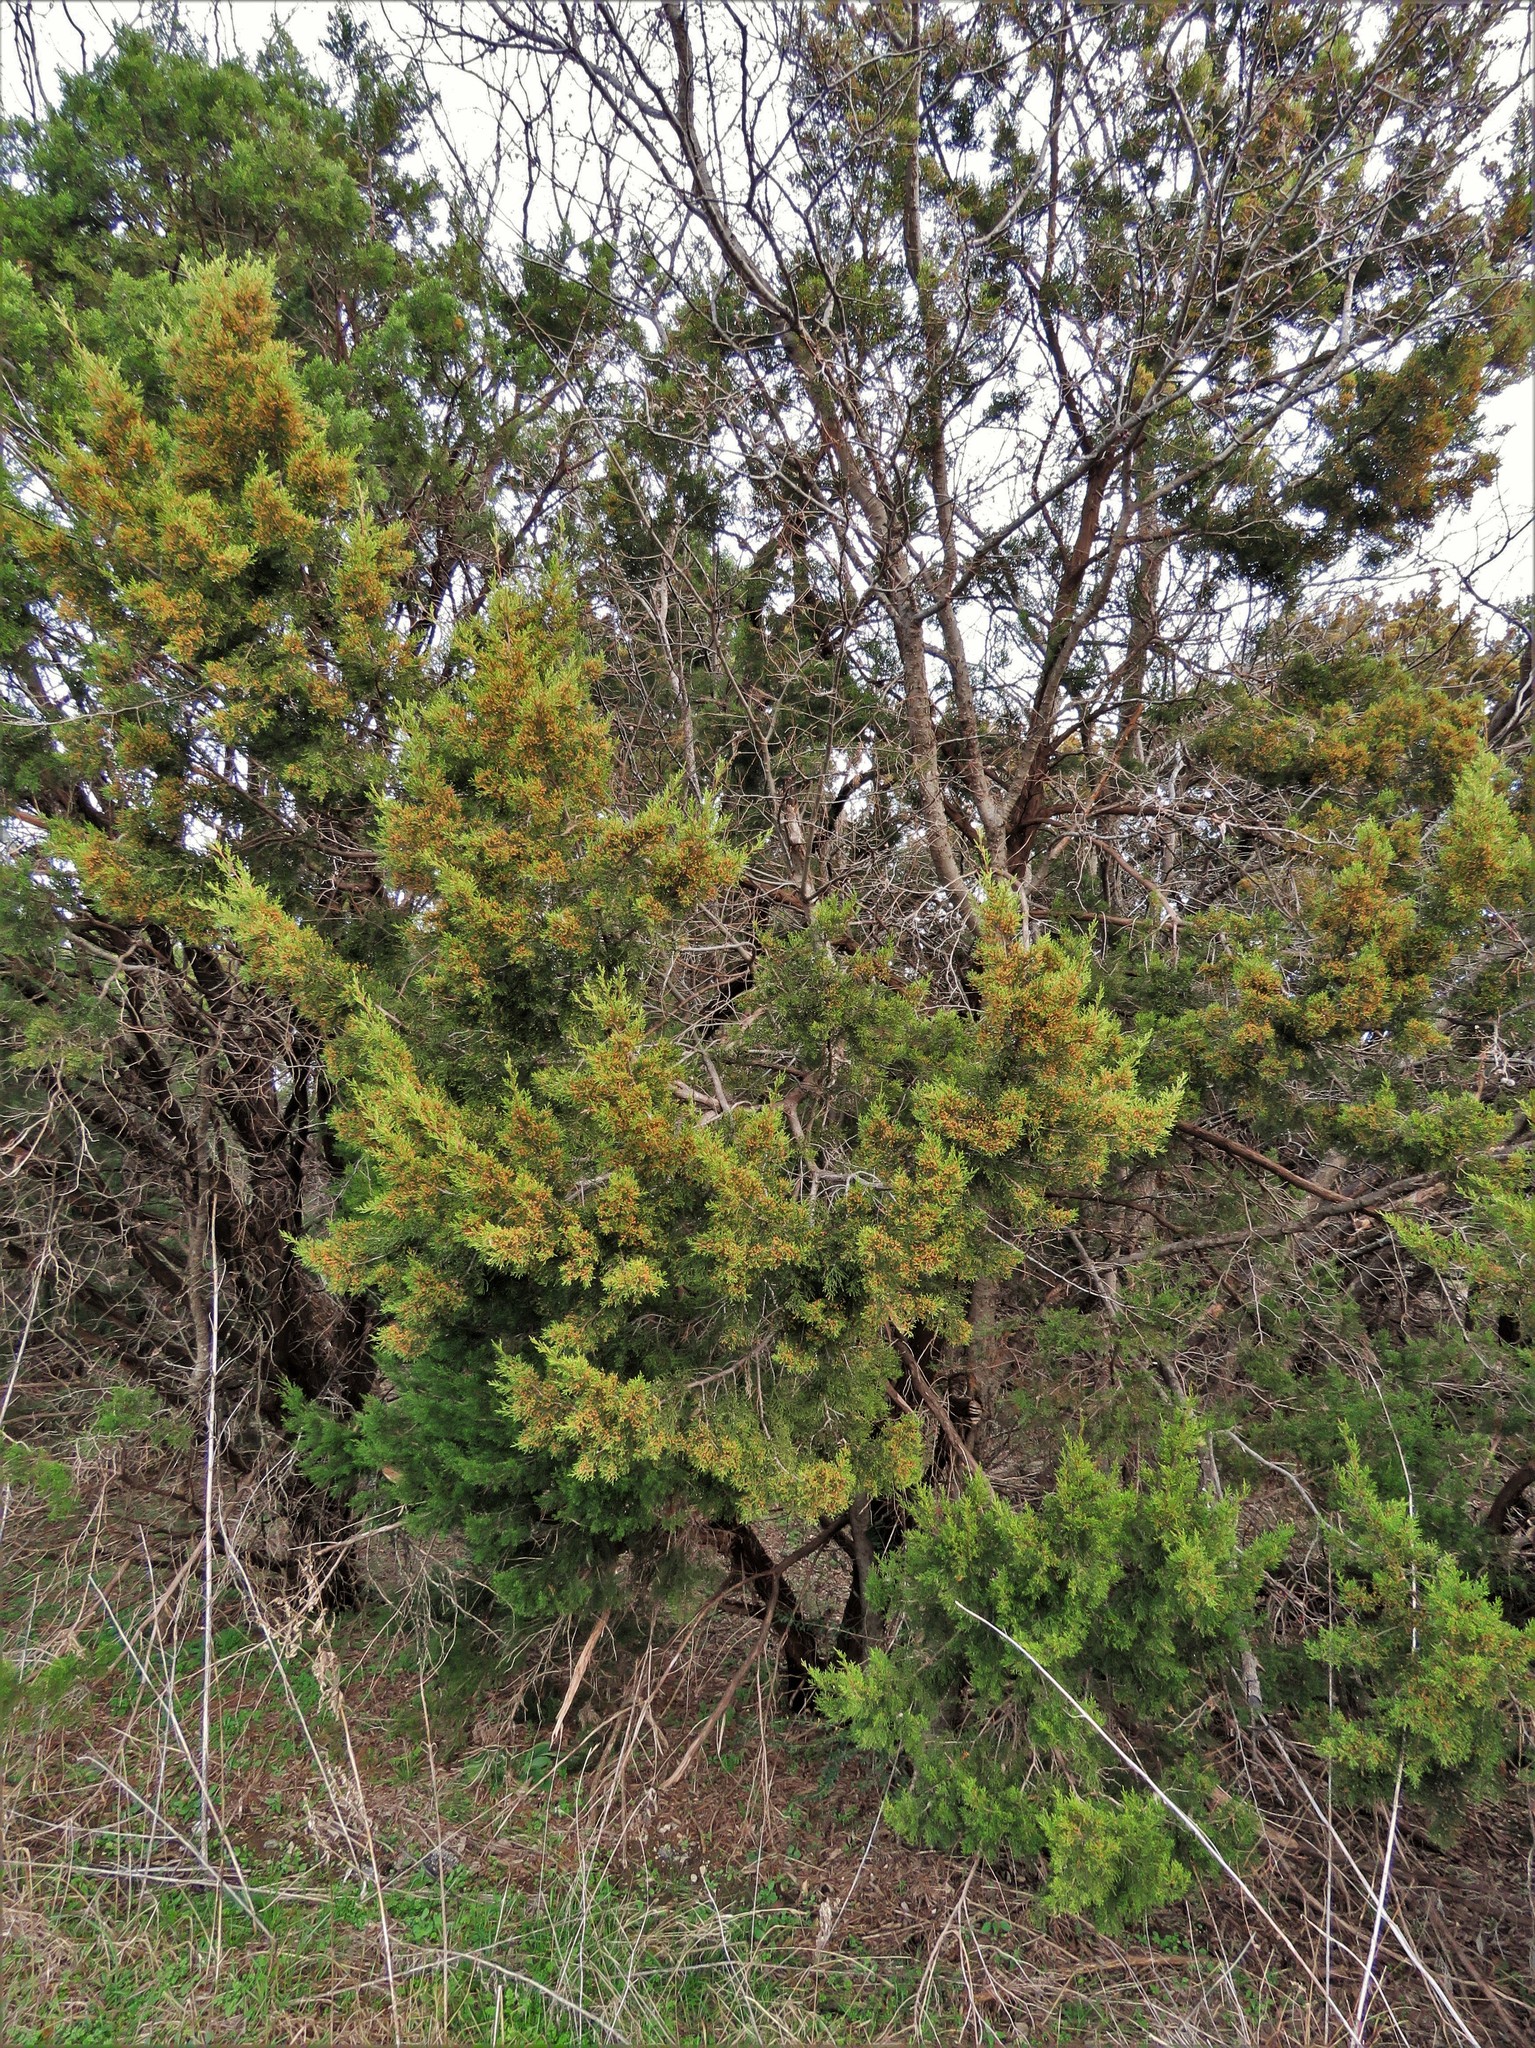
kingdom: Plantae
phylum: Tracheophyta
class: Pinopsida
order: Pinales
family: Cupressaceae
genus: Juniperus
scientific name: Juniperus ashei
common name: Mexican juniper
